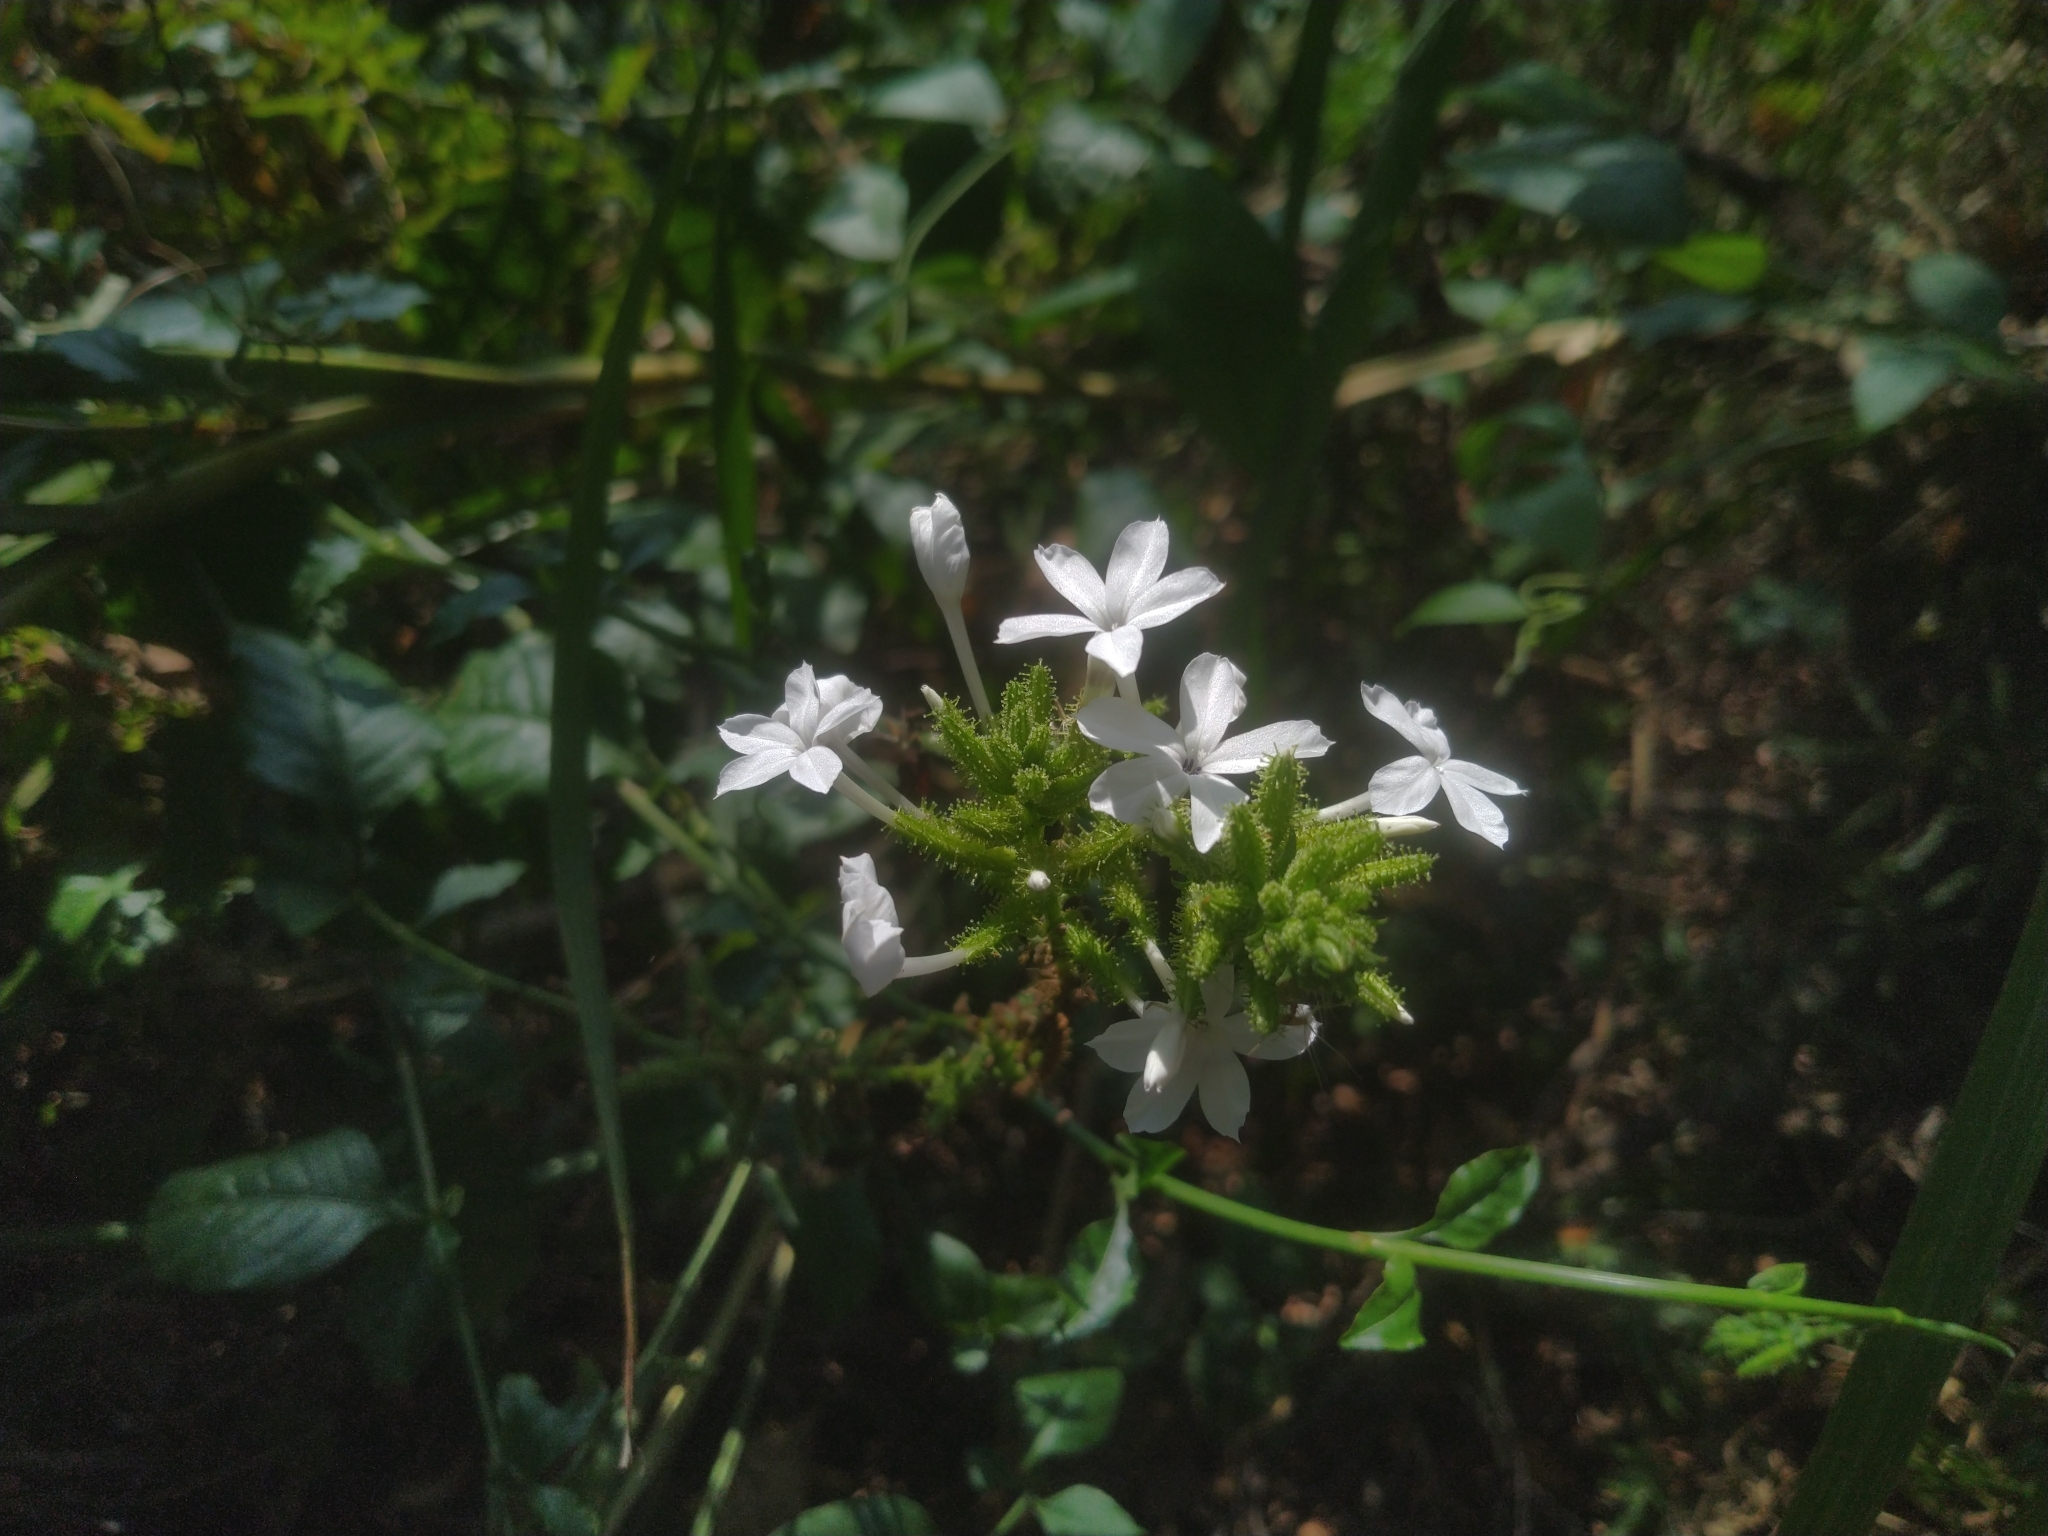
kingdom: Plantae
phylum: Tracheophyta
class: Magnoliopsida
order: Caryophyllales
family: Plumbaginaceae
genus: Plumbago
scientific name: Plumbago zeylanica
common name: Doctorbush
